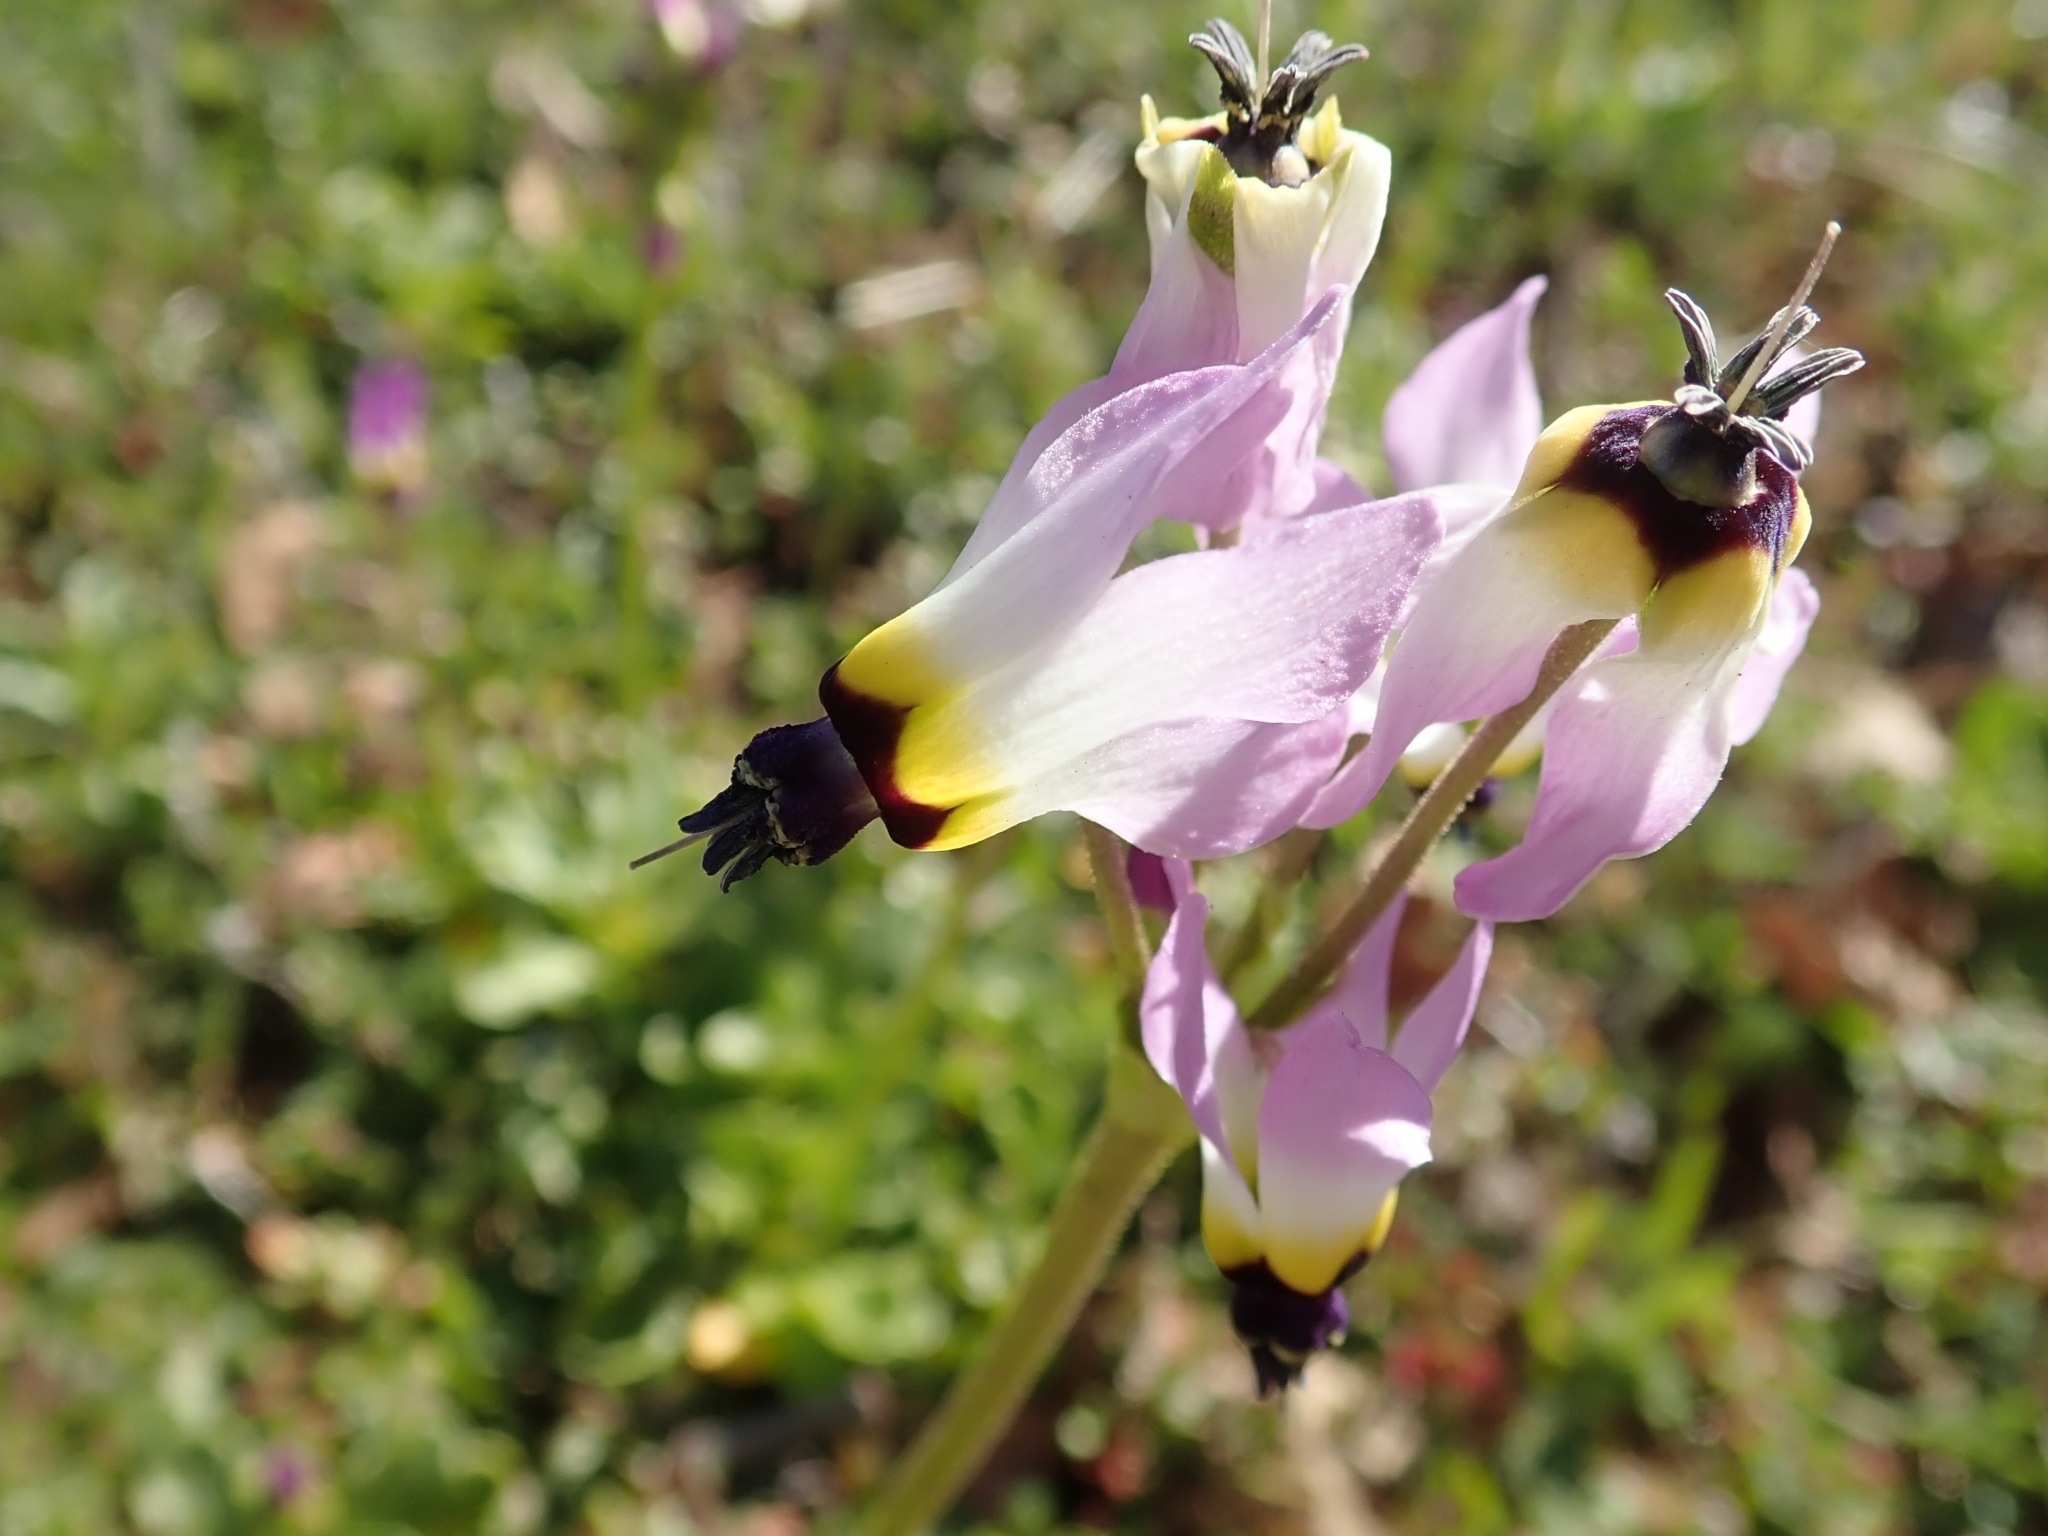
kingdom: Plantae
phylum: Tracheophyta
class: Magnoliopsida
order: Ericales
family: Primulaceae
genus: Dodecatheon
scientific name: Dodecatheon clevelandii
